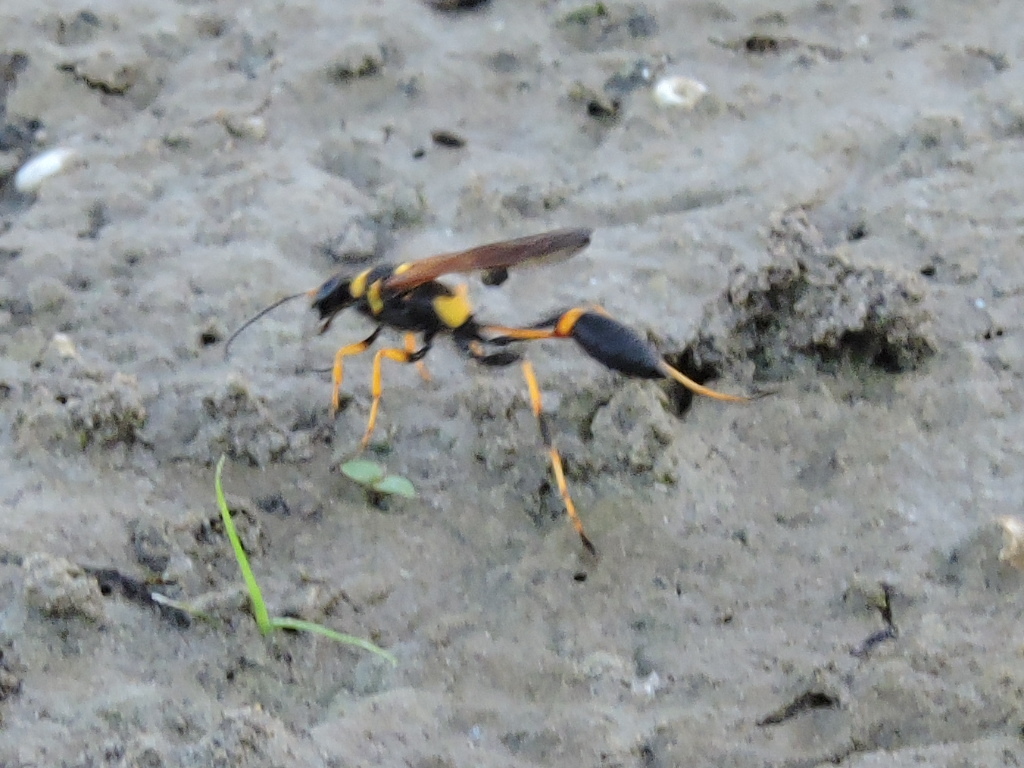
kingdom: Animalia
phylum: Arthropoda
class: Insecta
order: Hymenoptera
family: Sphecidae
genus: Sceliphron
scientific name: Sceliphron caementarium
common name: Mud dauber
